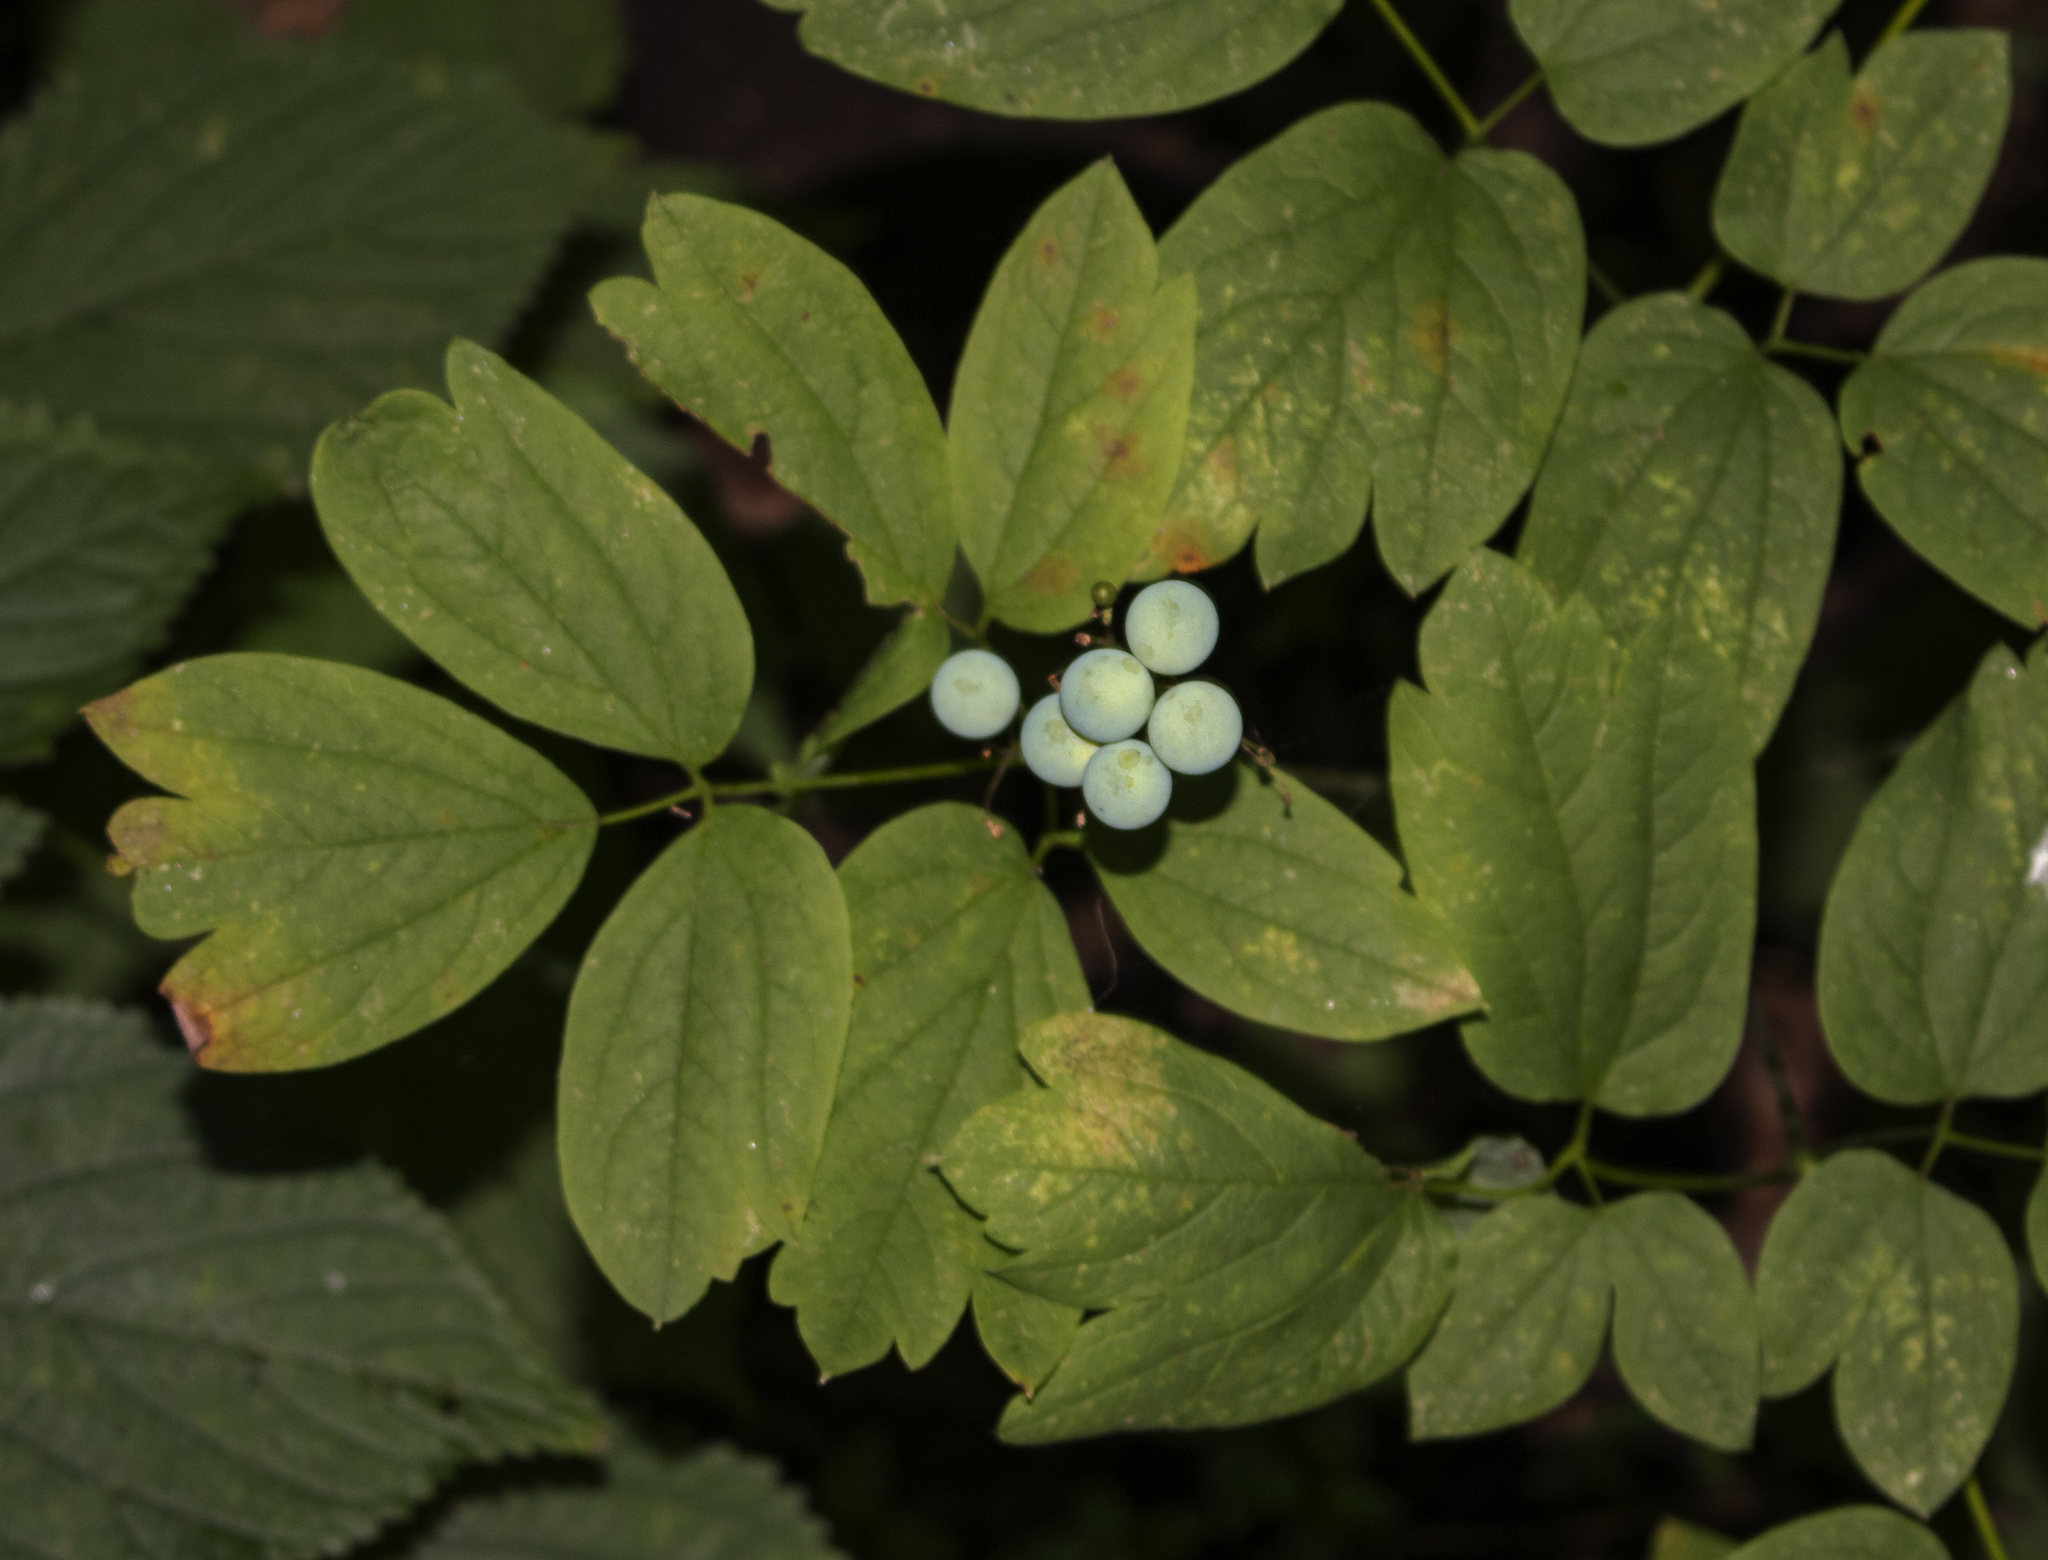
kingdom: Plantae
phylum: Tracheophyta
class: Magnoliopsida
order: Ranunculales
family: Berberidaceae
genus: Caulophyllum
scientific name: Caulophyllum thalictroides
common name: Blue cohosh
